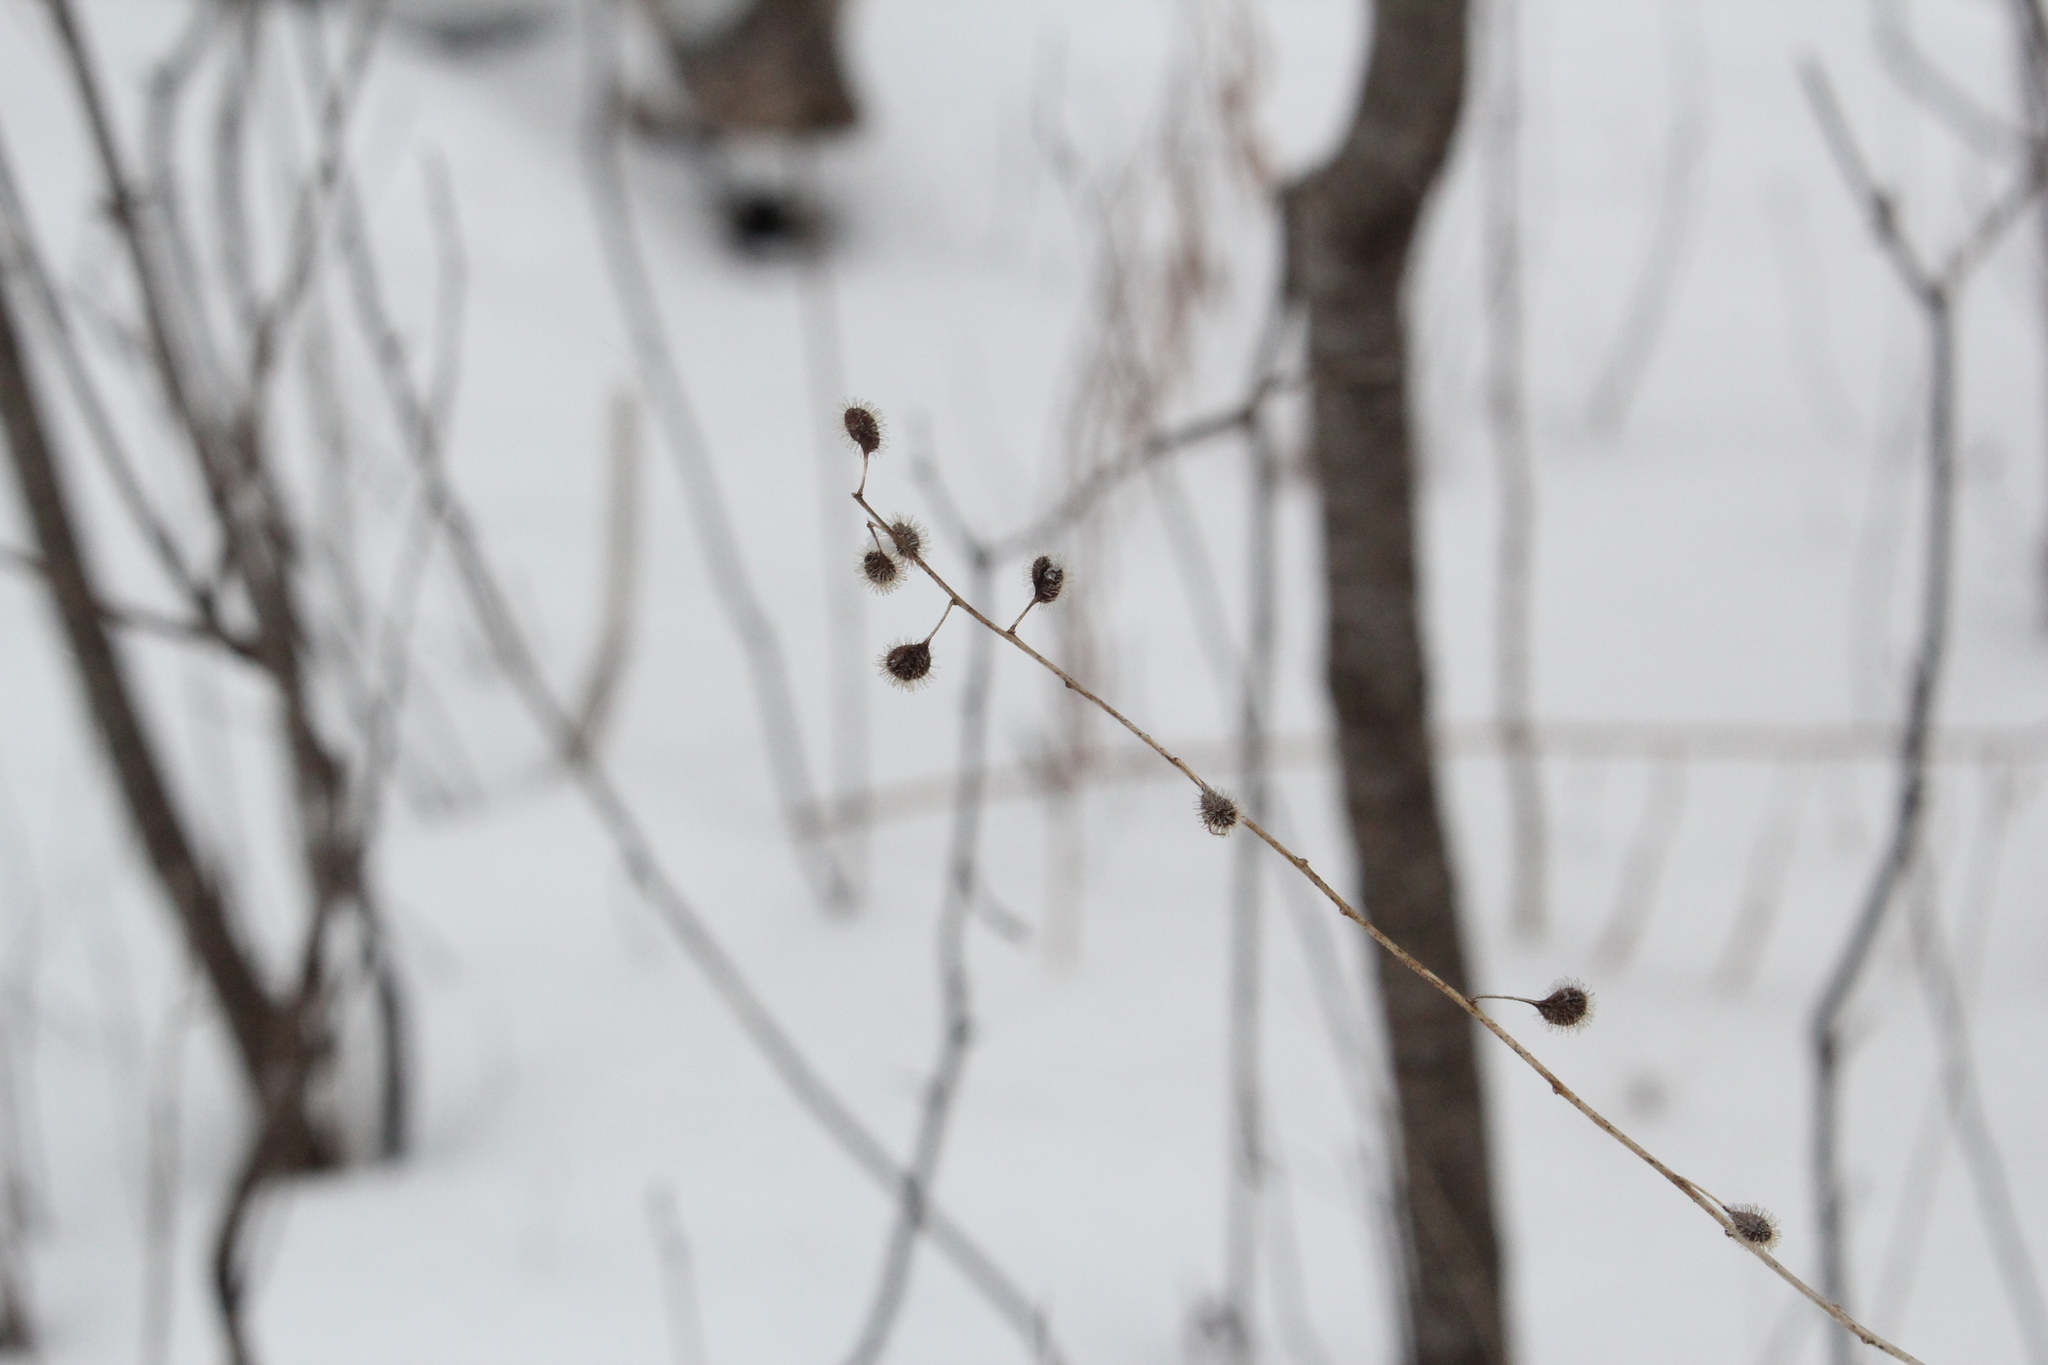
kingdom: Plantae
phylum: Tracheophyta
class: Magnoliopsida
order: Myrtales
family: Onagraceae
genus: Circaea
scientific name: Circaea canadensis
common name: Broad-leaved enchanter's nightshade
